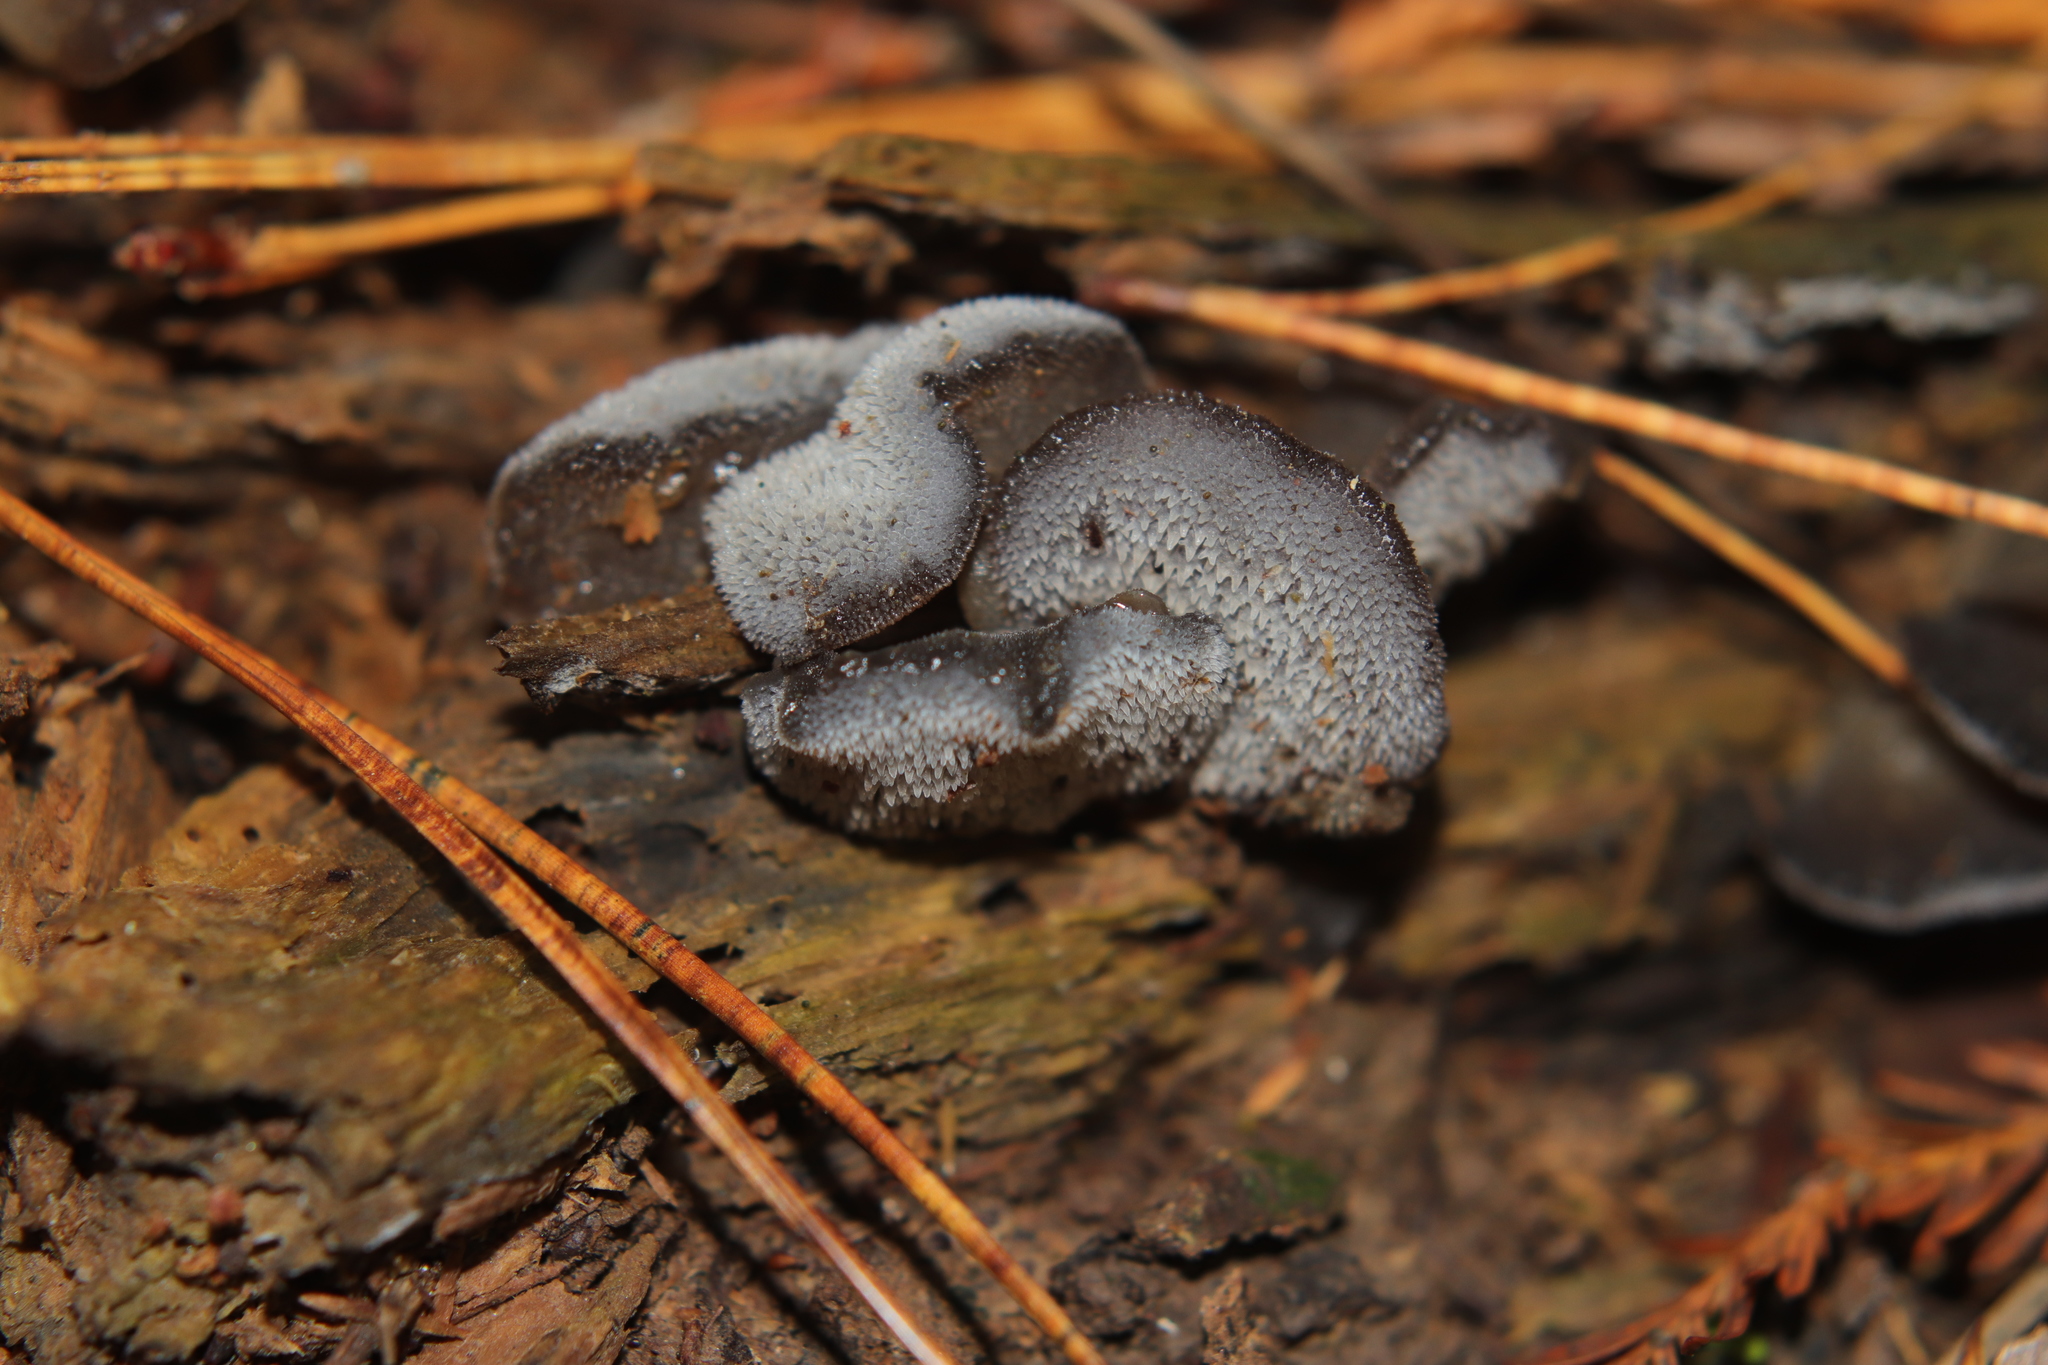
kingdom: Fungi
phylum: Basidiomycota
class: Agaricomycetes
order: Auriculariales
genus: Pseudohydnum
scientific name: Pseudohydnum orbiculare
